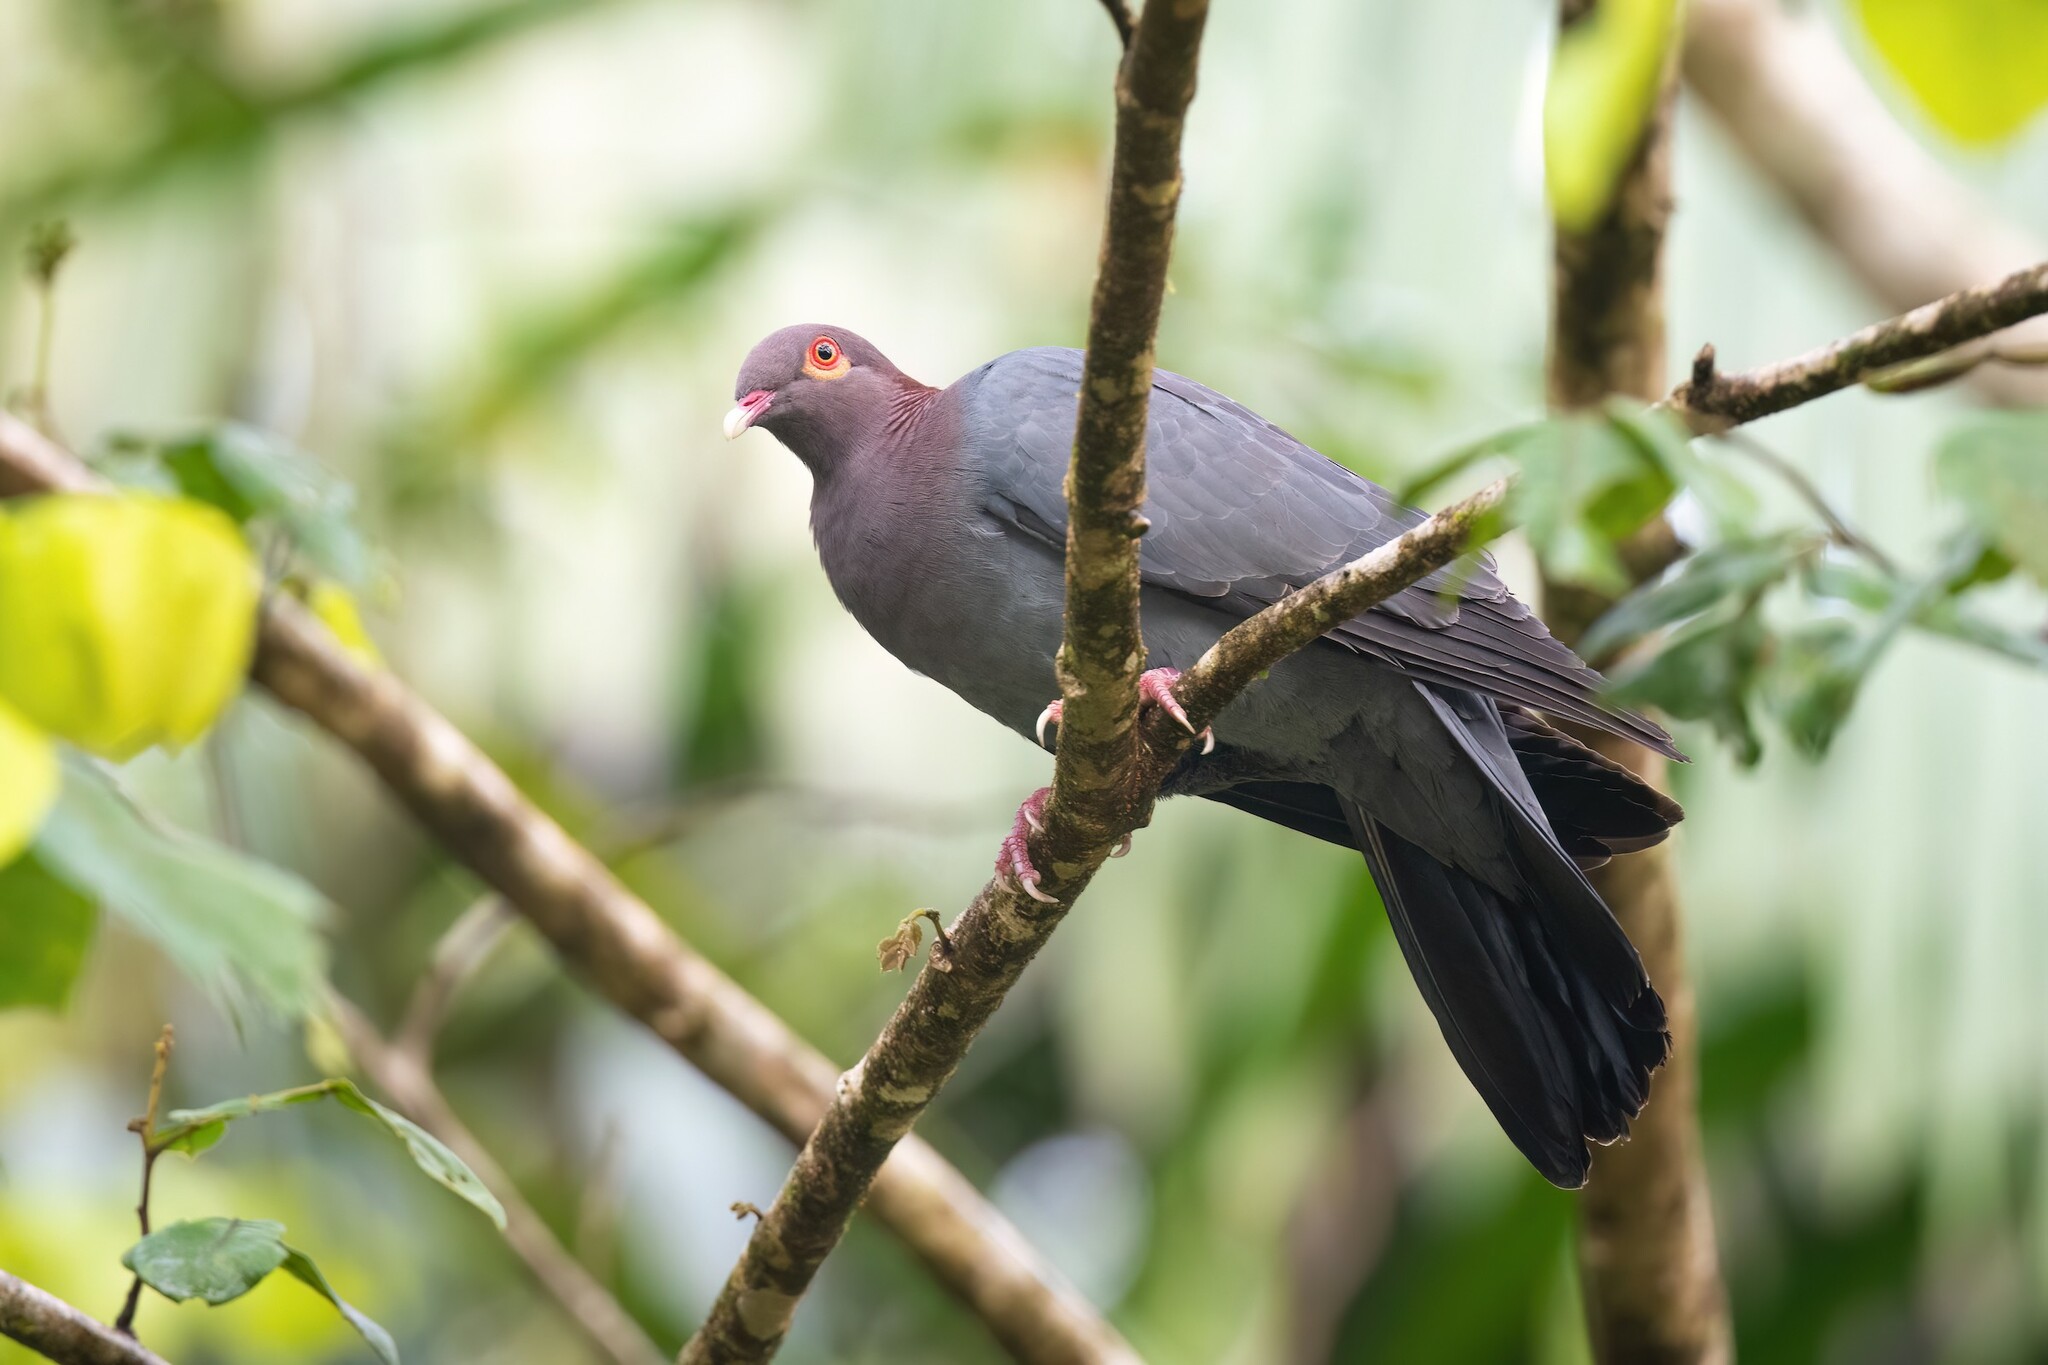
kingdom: Animalia
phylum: Chordata
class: Aves
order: Columbiformes
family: Columbidae
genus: Patagioenas
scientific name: Patagioenas squamosa
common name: Scaly-naped pigeon
